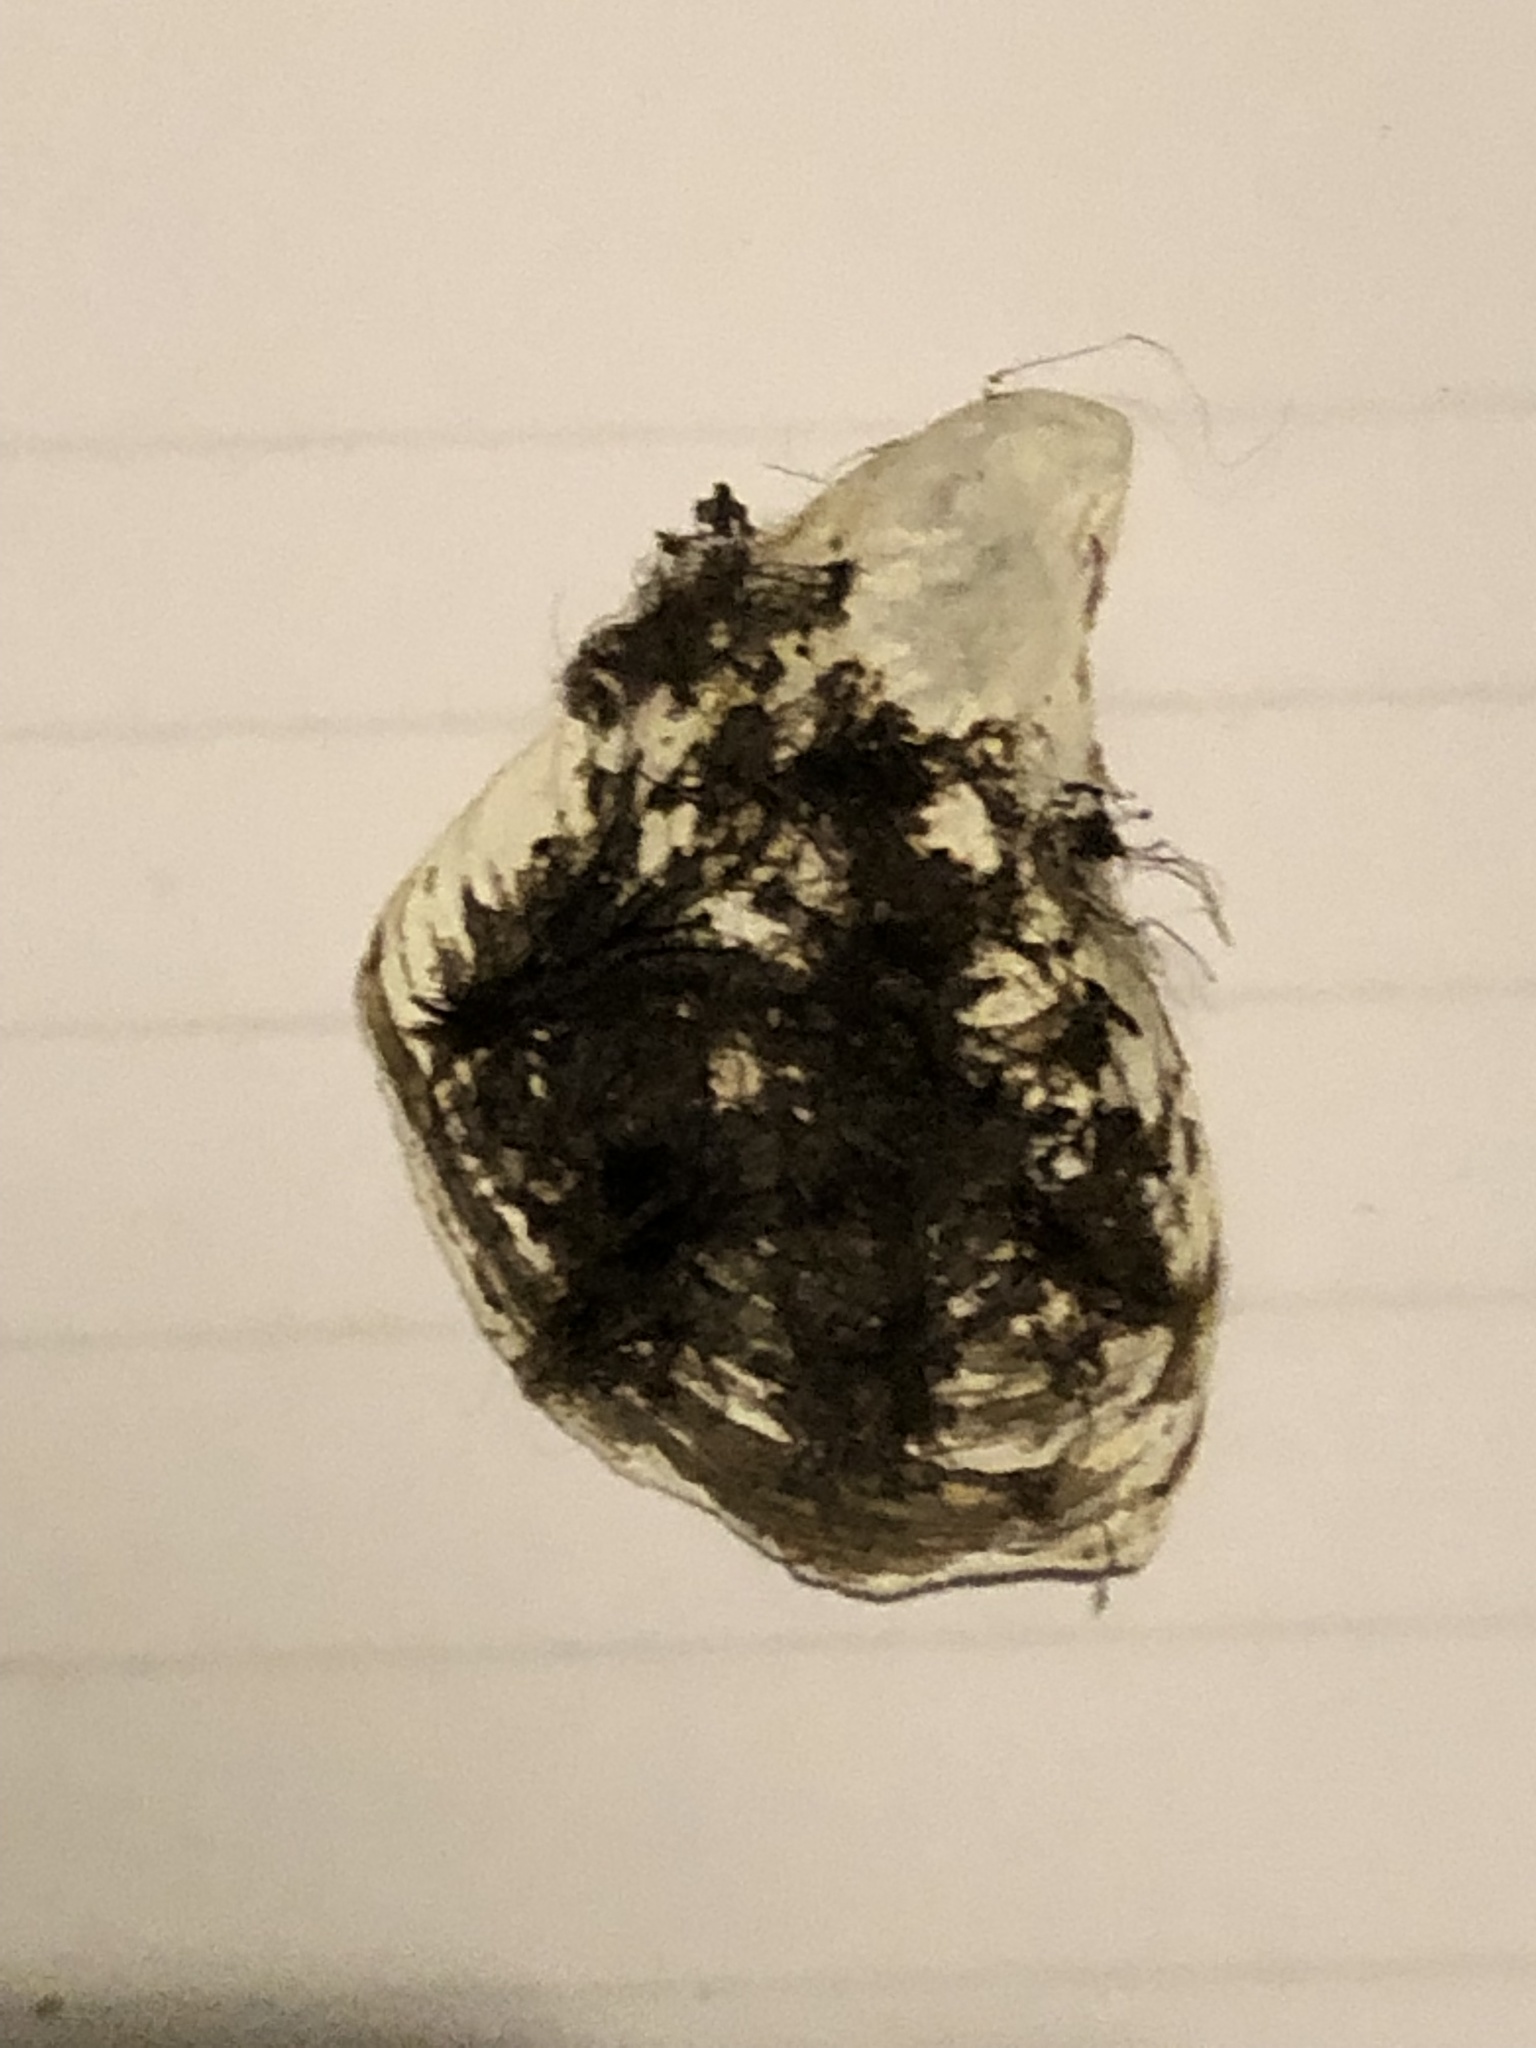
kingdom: Animalia
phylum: Mollusca
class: Bivalvia
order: Myida
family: Dreissenidae
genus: Dreissena
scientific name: Dreissena bugensis
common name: Quagga mussel
